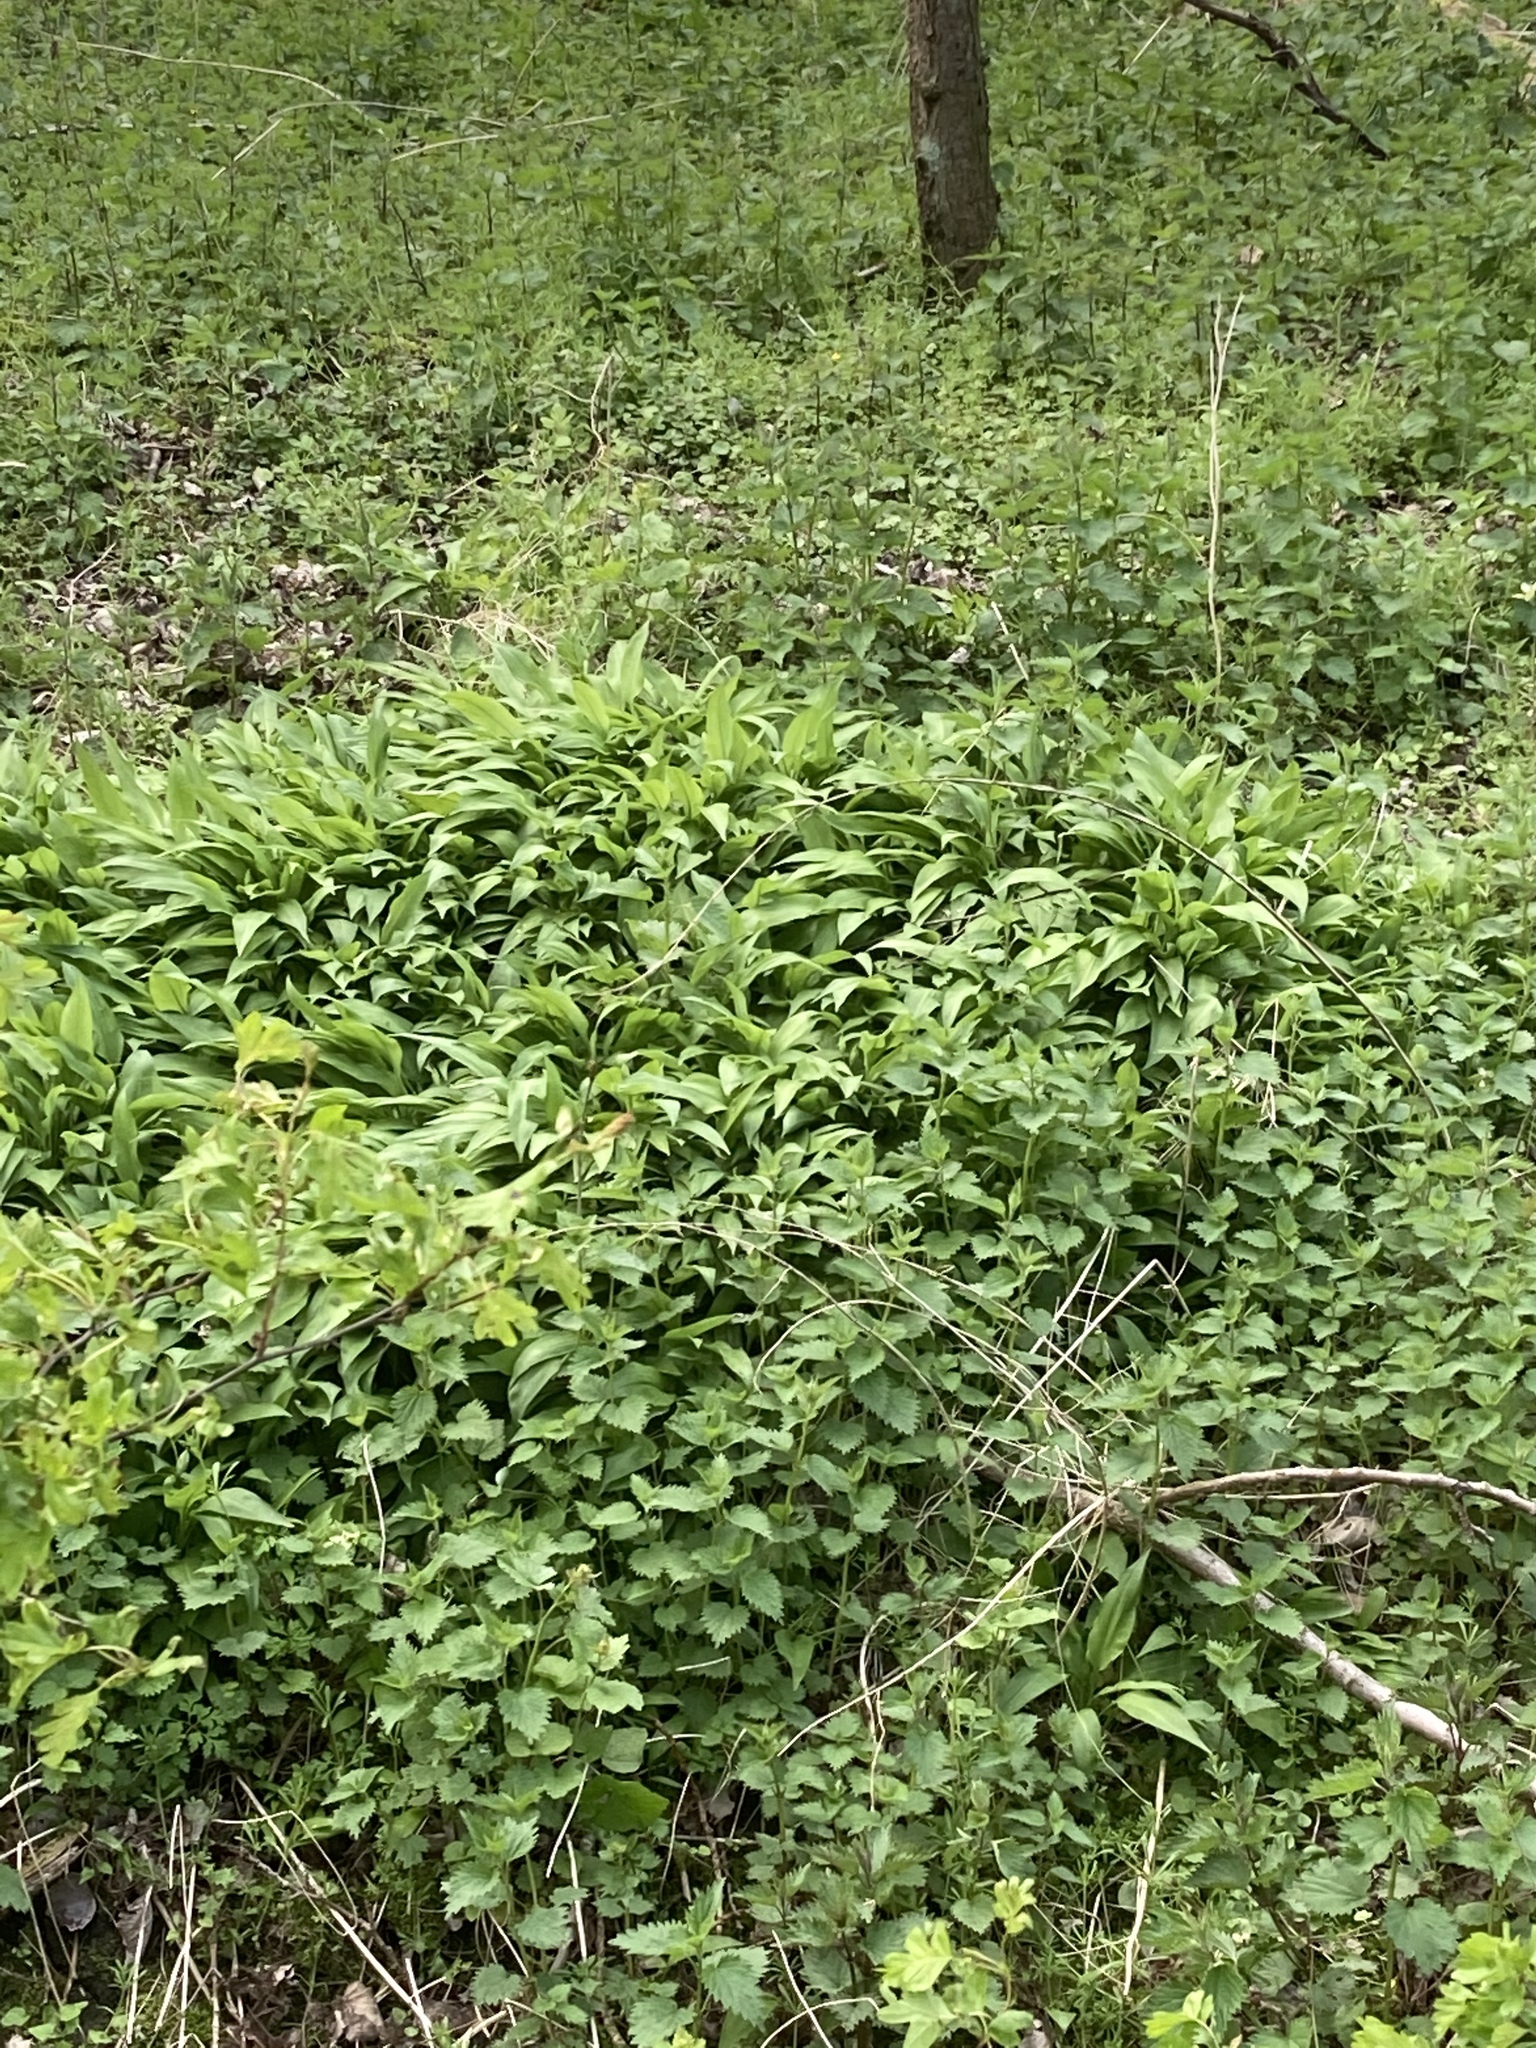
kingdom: Plantae
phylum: Tracheophyta
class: Liliopsida
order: Asparagales
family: Amaryllidaceae
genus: Allium
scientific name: Allium ursinum
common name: Ramsons
